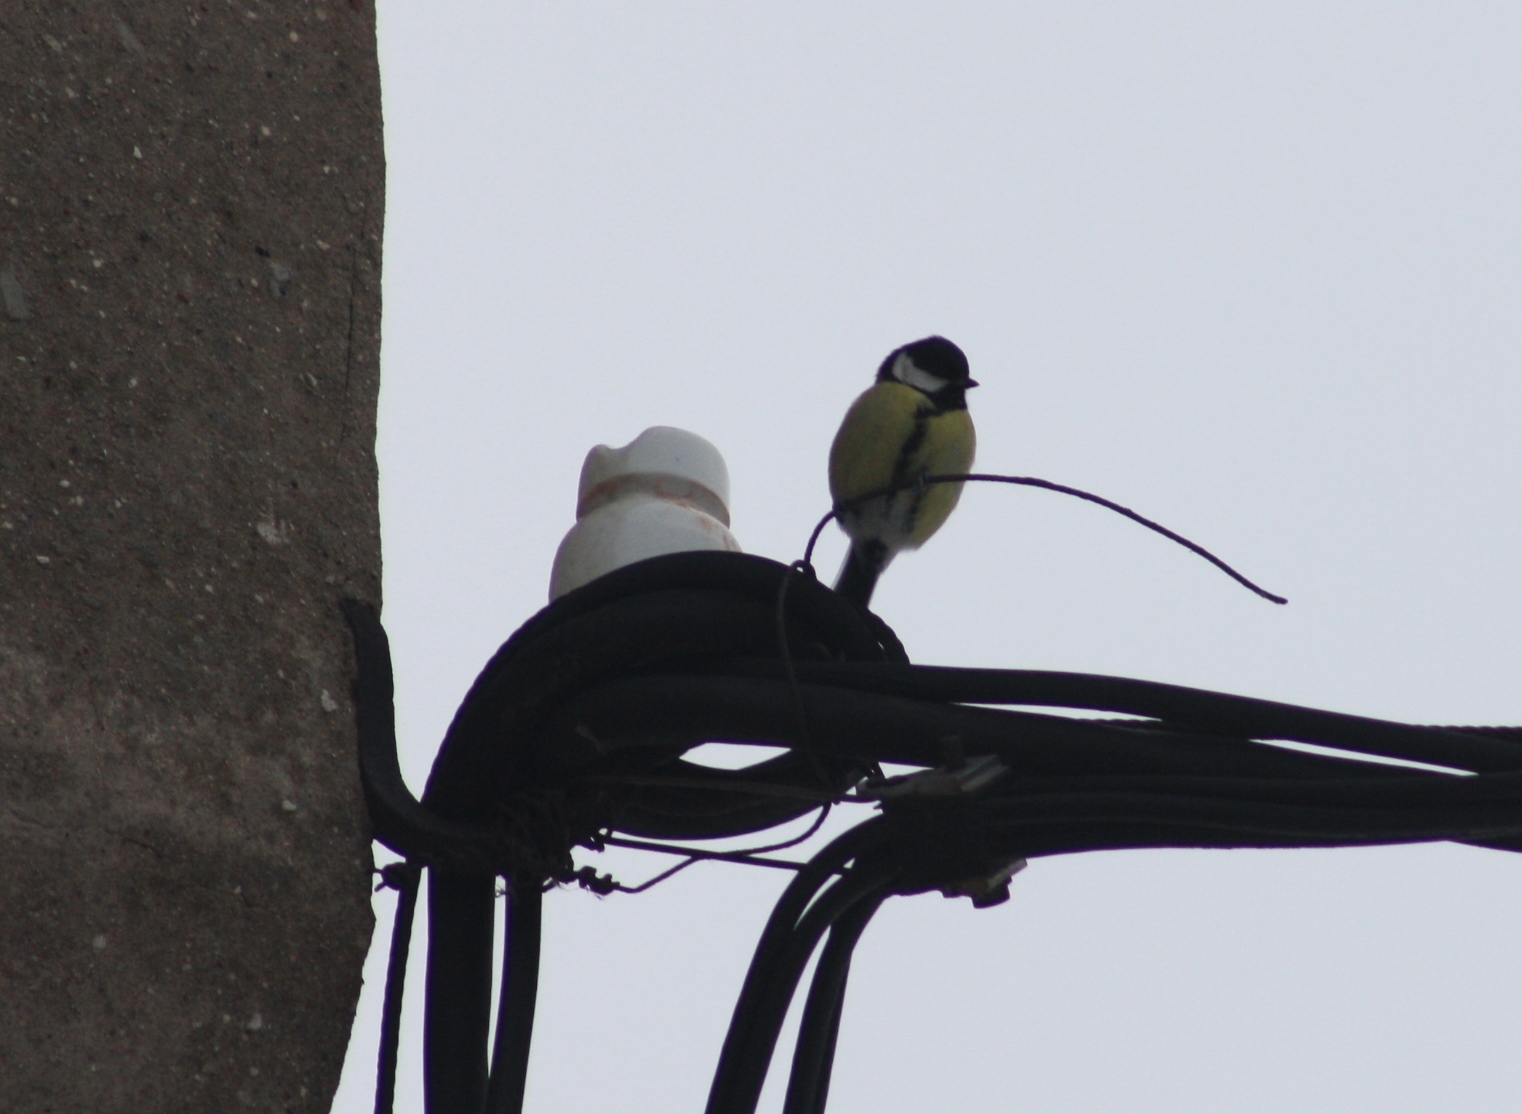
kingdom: Animalia
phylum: Chordata
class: Aves
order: Passeriformes
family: Paridae
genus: Parus
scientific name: Parus major
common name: Great tit
